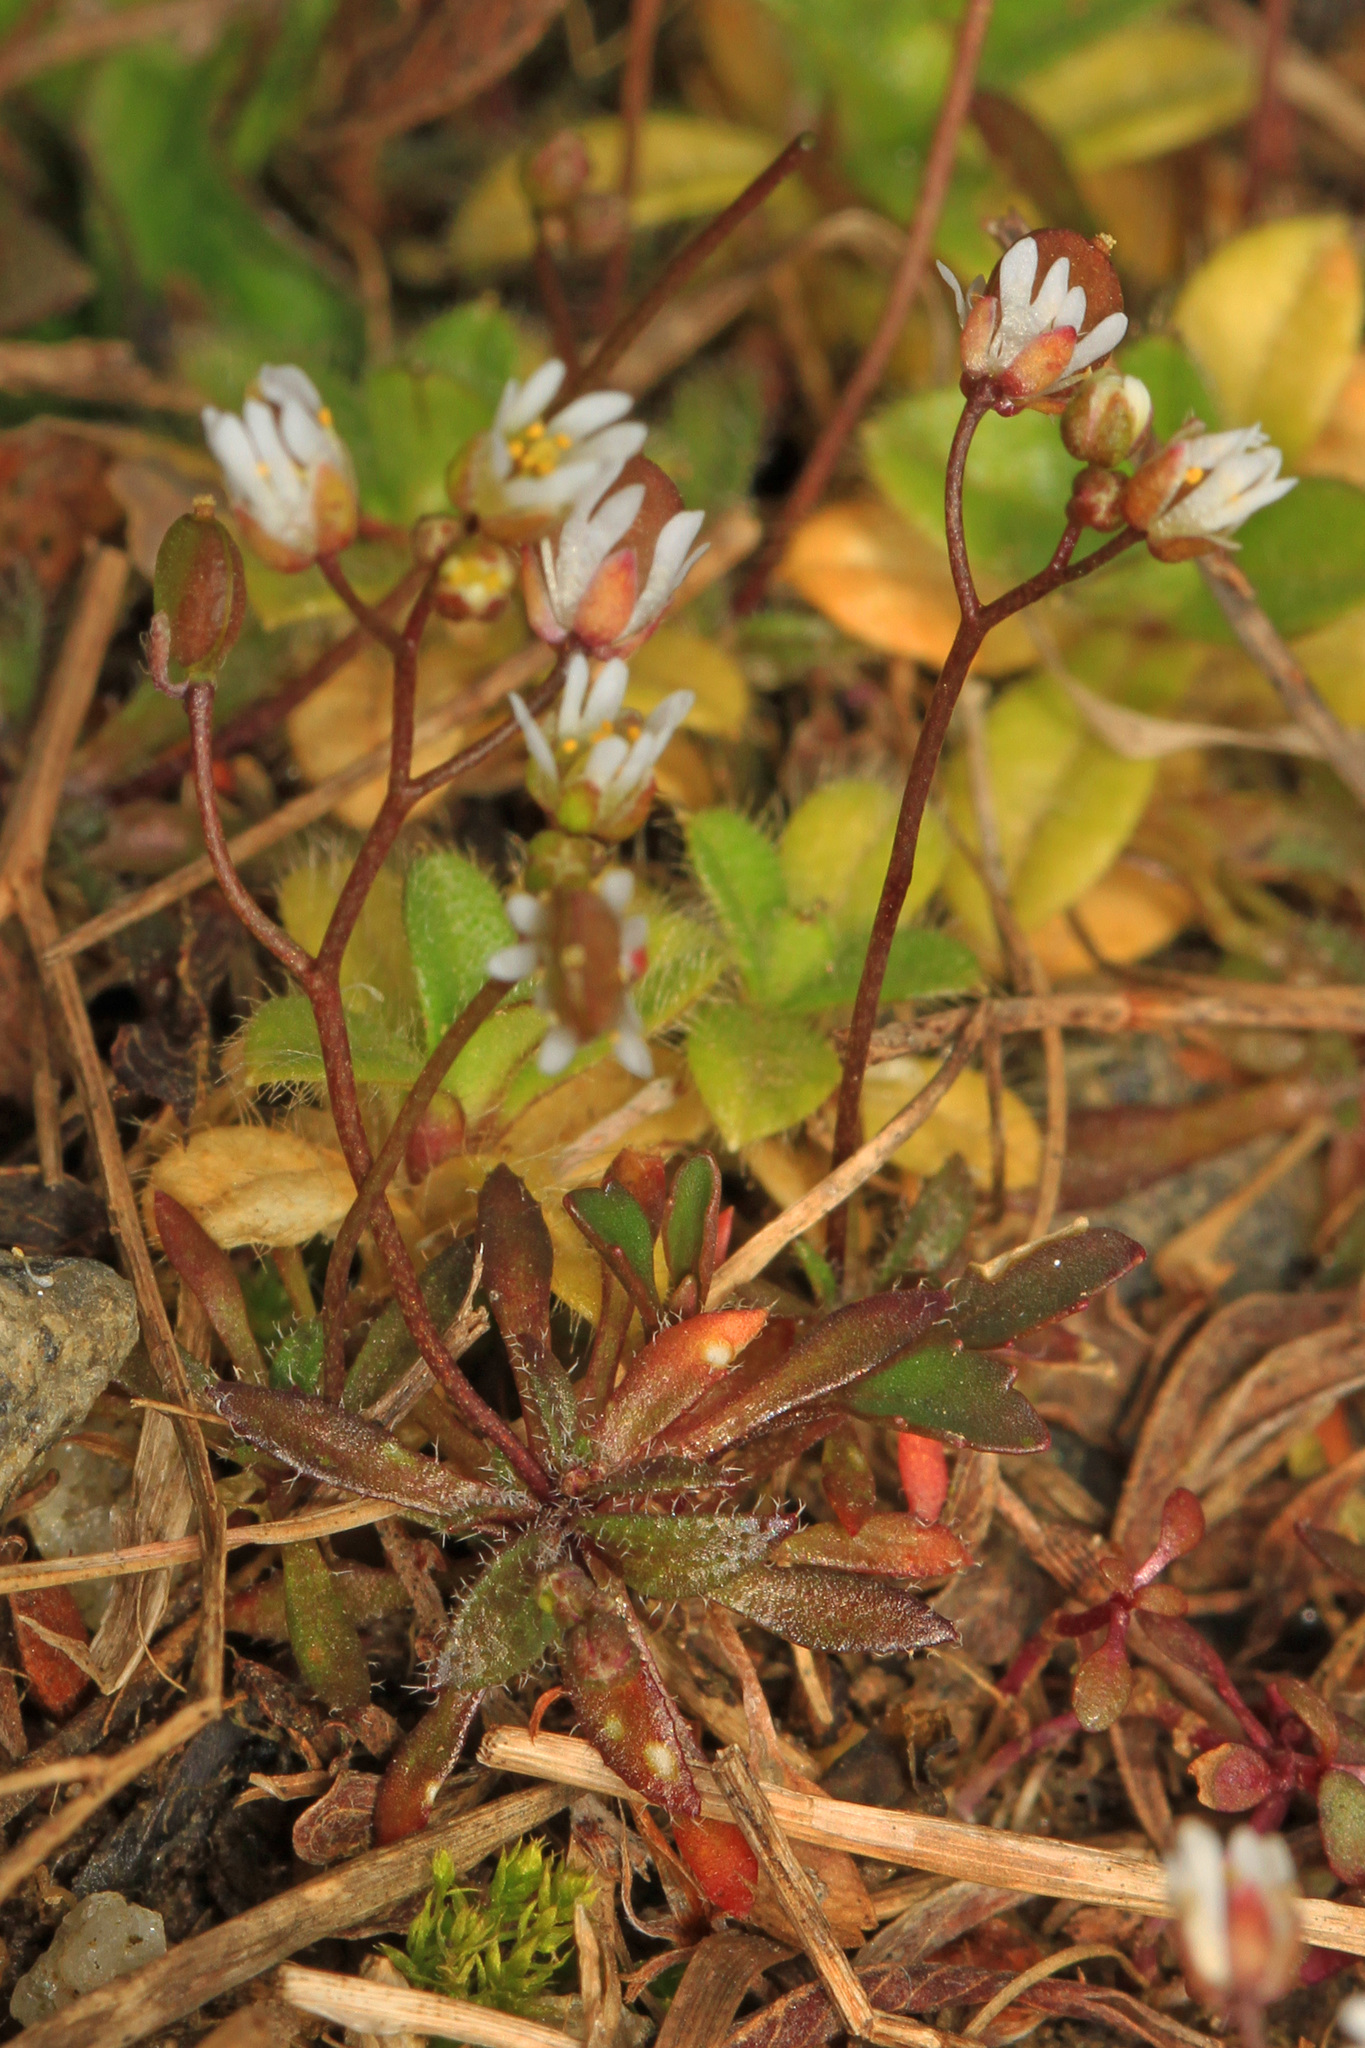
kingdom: Plantae
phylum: Tracheophyta
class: Magnoliopsida
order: Brassicales
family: Brassicaceae
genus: Draba
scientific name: Draba verna
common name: Spring draba
